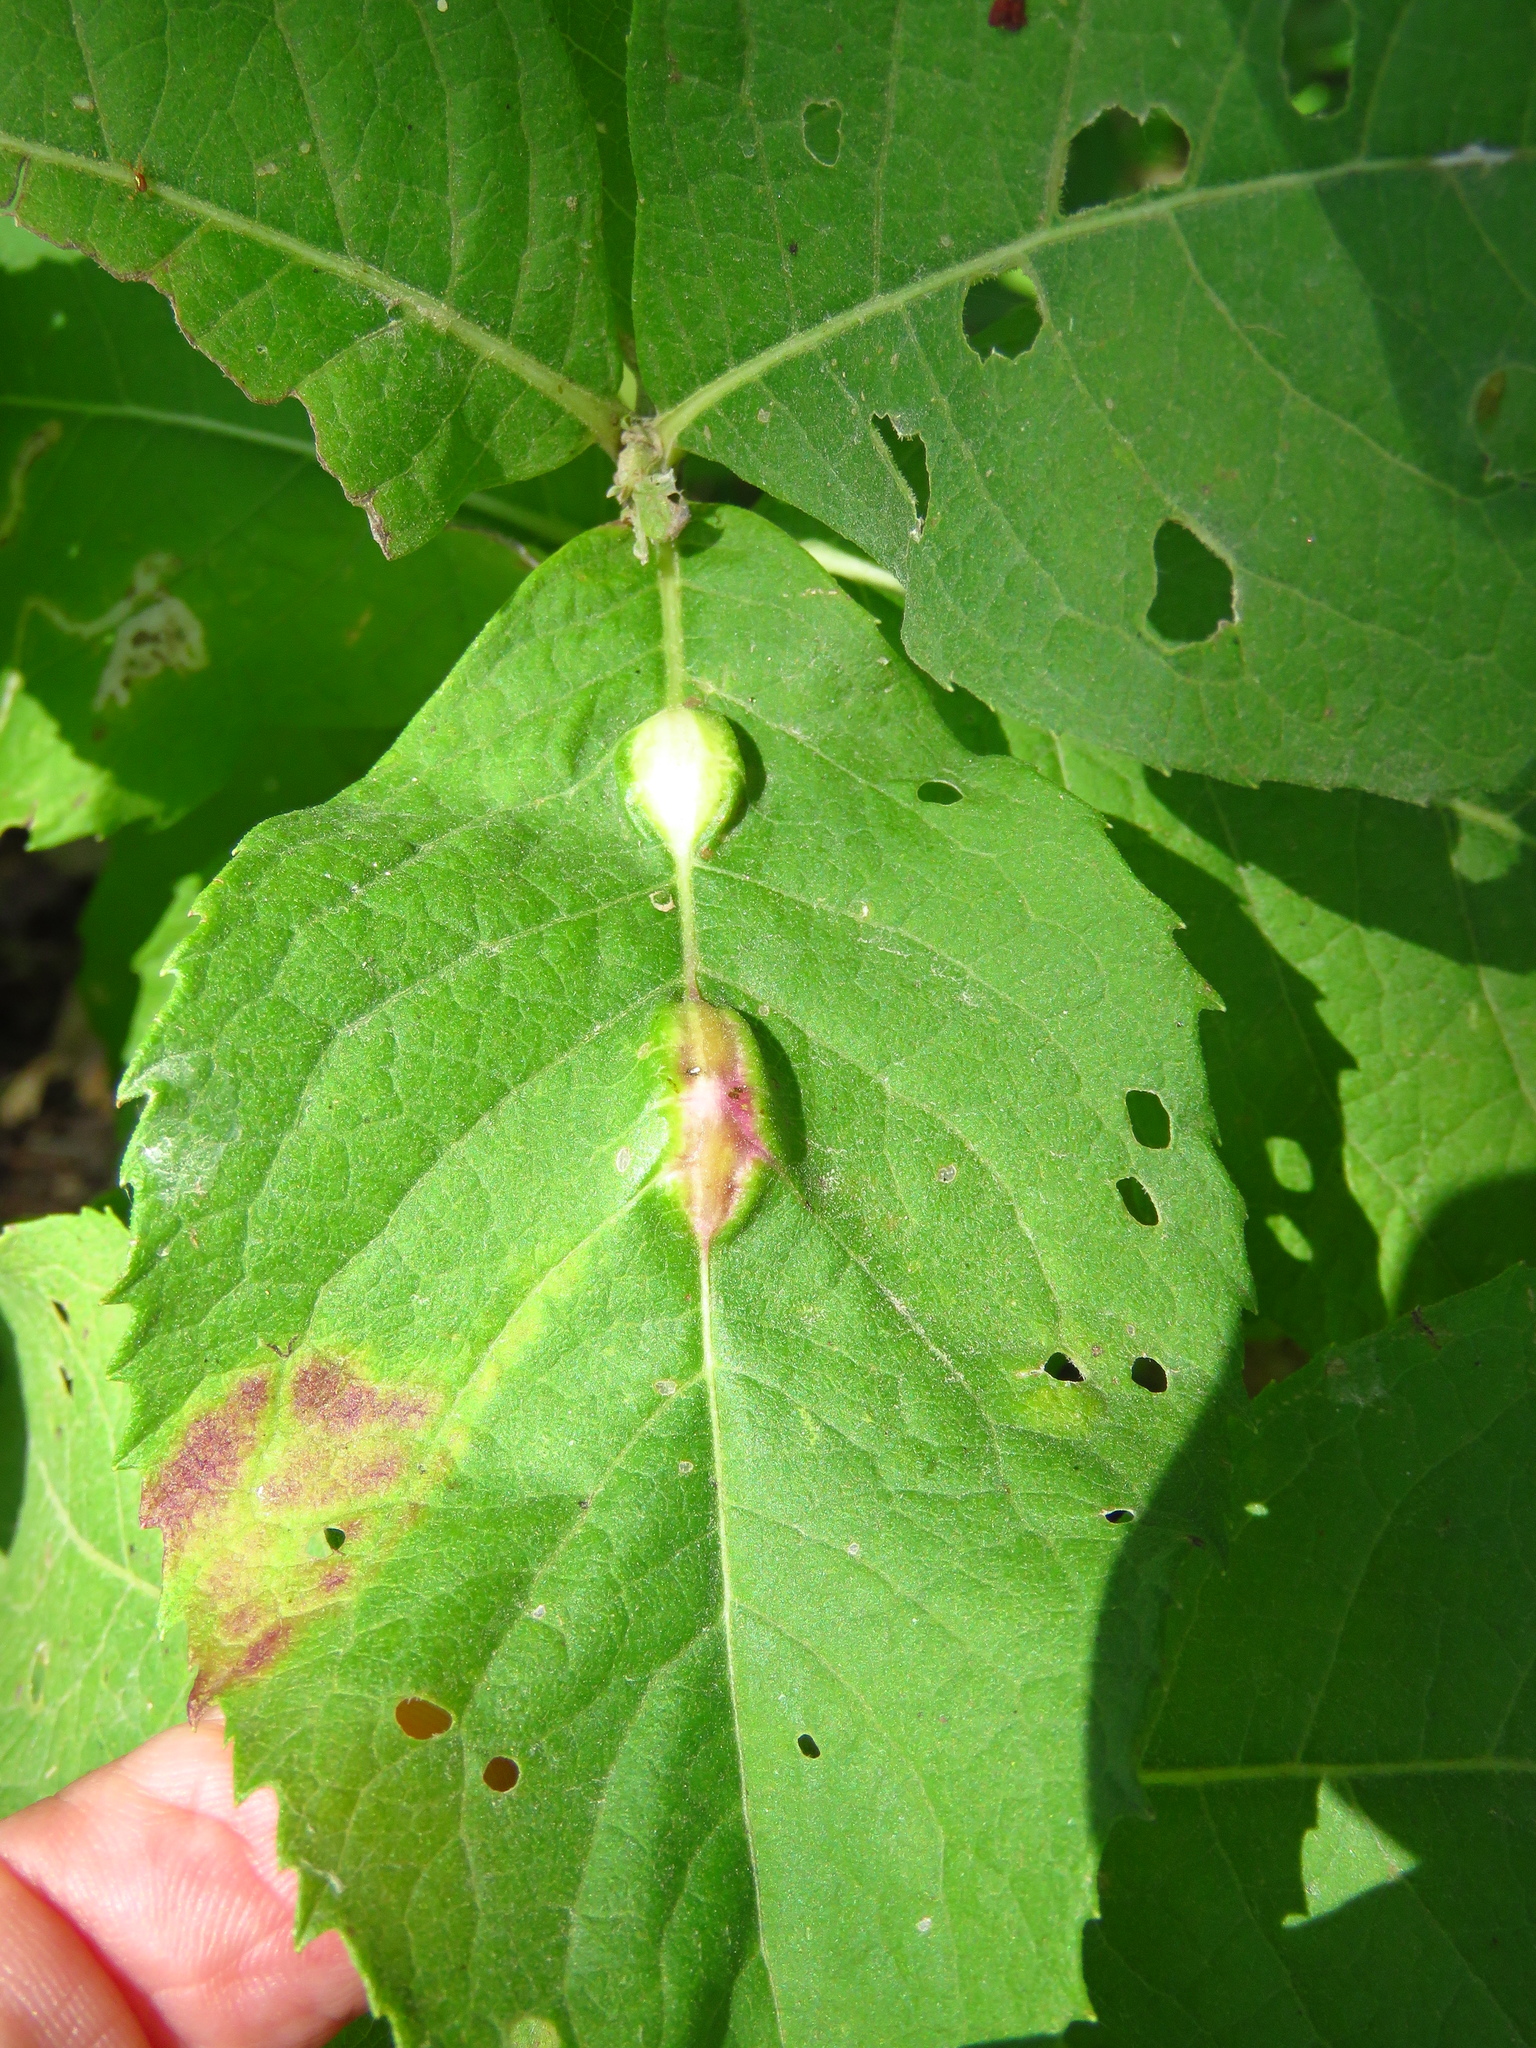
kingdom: Animalia
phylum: Arthropoda
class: Insecta
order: Diptera
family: Cecidomyiidae
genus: Neolasioptera
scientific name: Neolasioptera vernoniae
